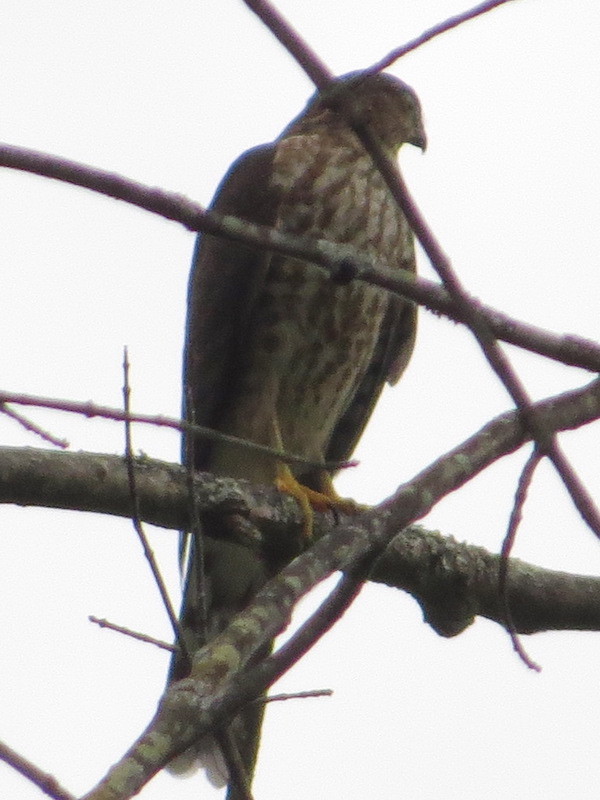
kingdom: Animalia
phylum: Chordata
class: Aves
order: Accipitriformes
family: Accipitridae
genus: Accipiter
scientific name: Accipiter striatus
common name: Sharp-shinned hawk
